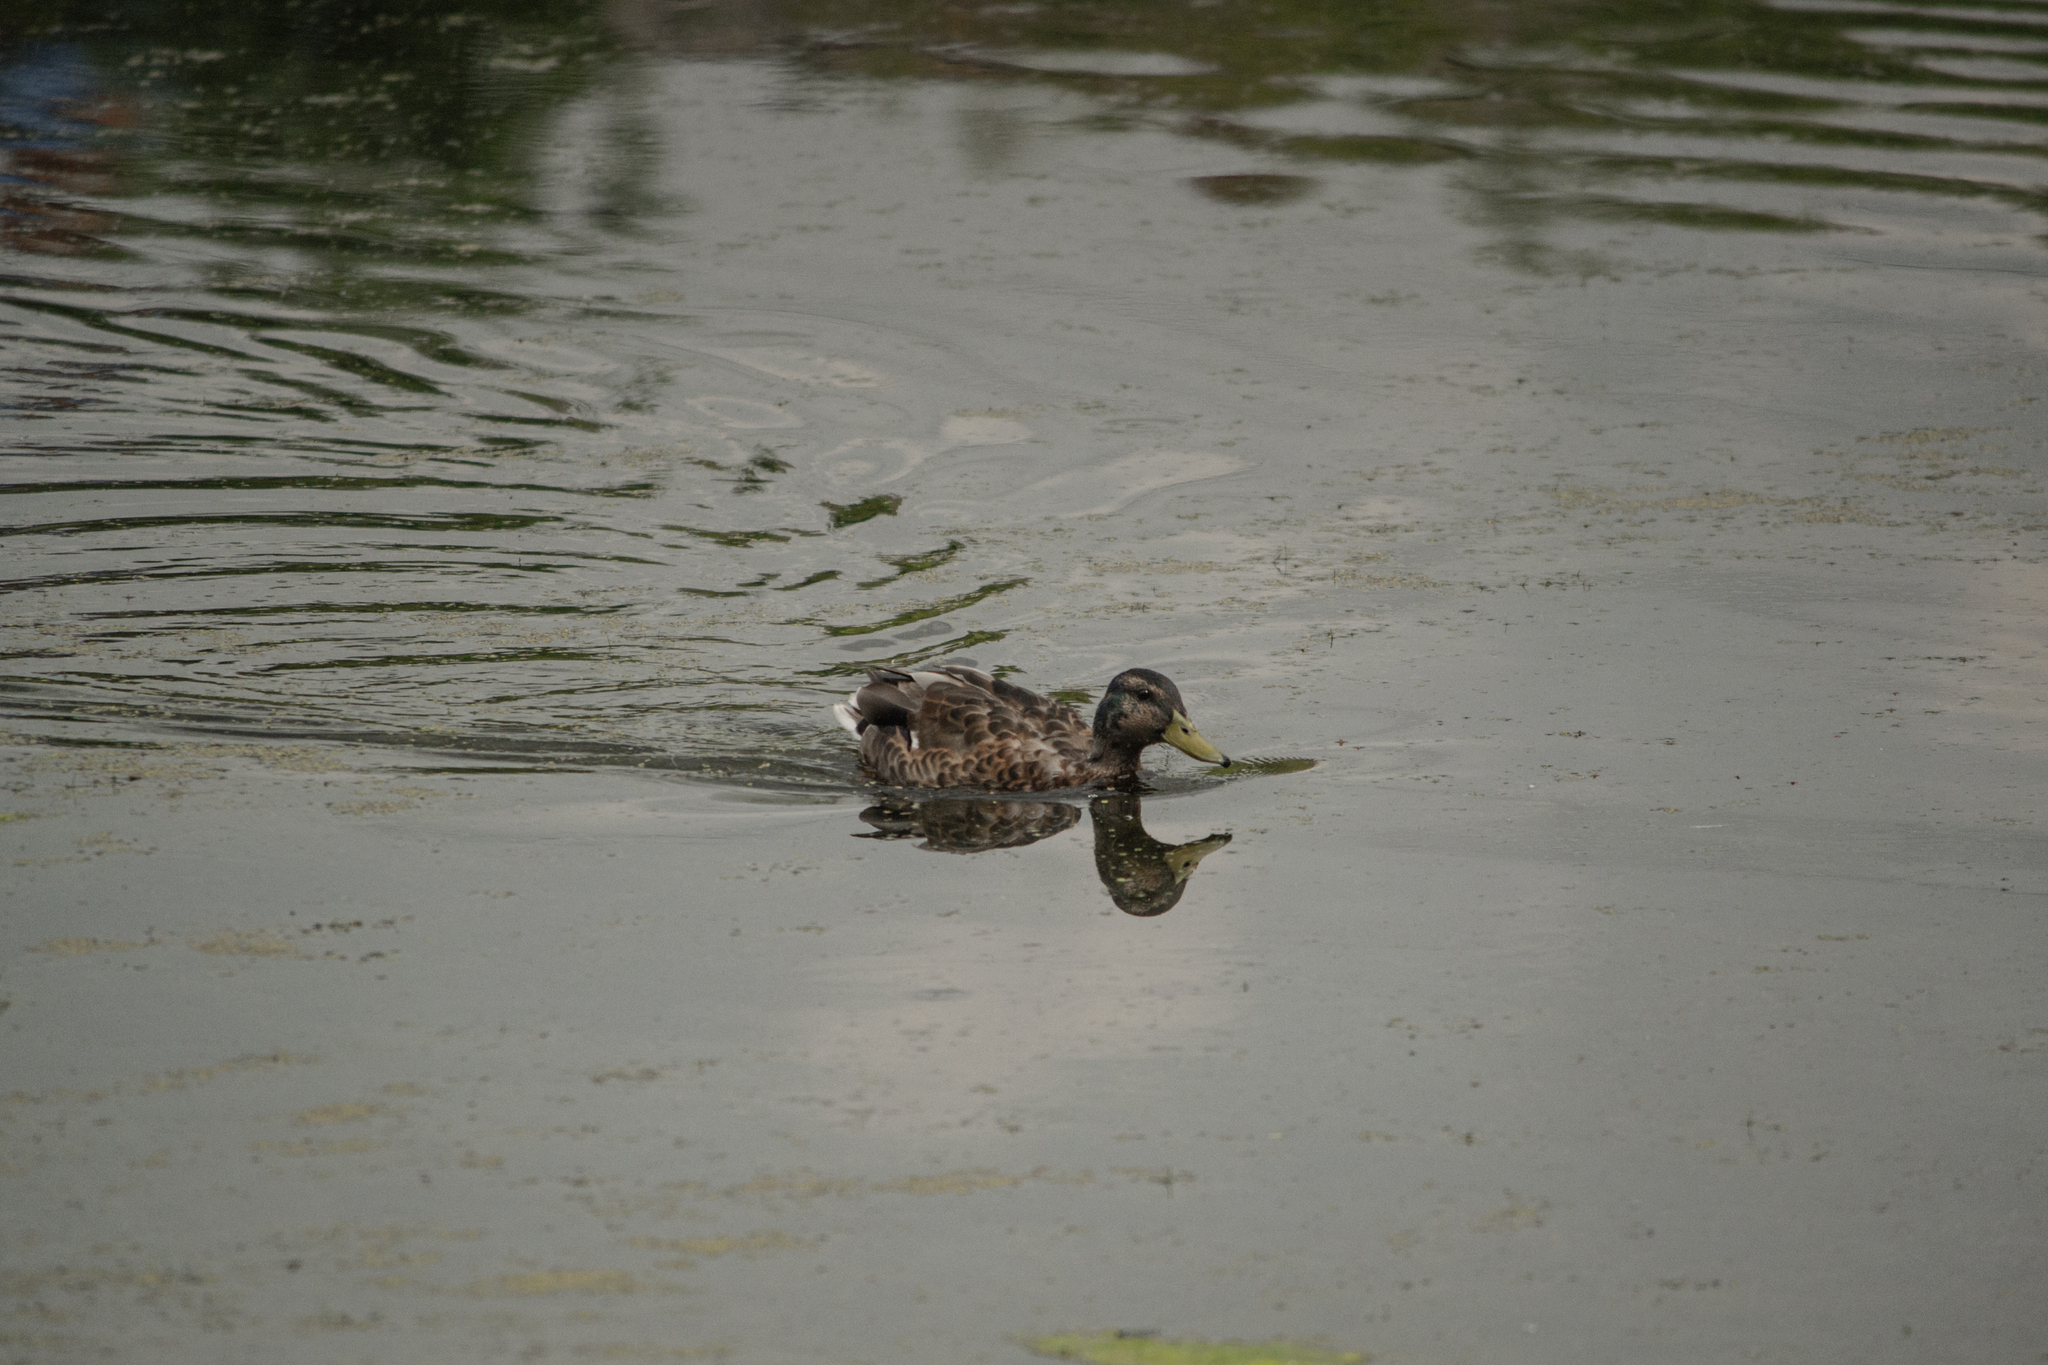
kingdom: Animalia
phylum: Chordata
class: Aves
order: Anseriformes
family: Anatidae
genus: Anas
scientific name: Anas platyrhynchos
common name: Mallard
